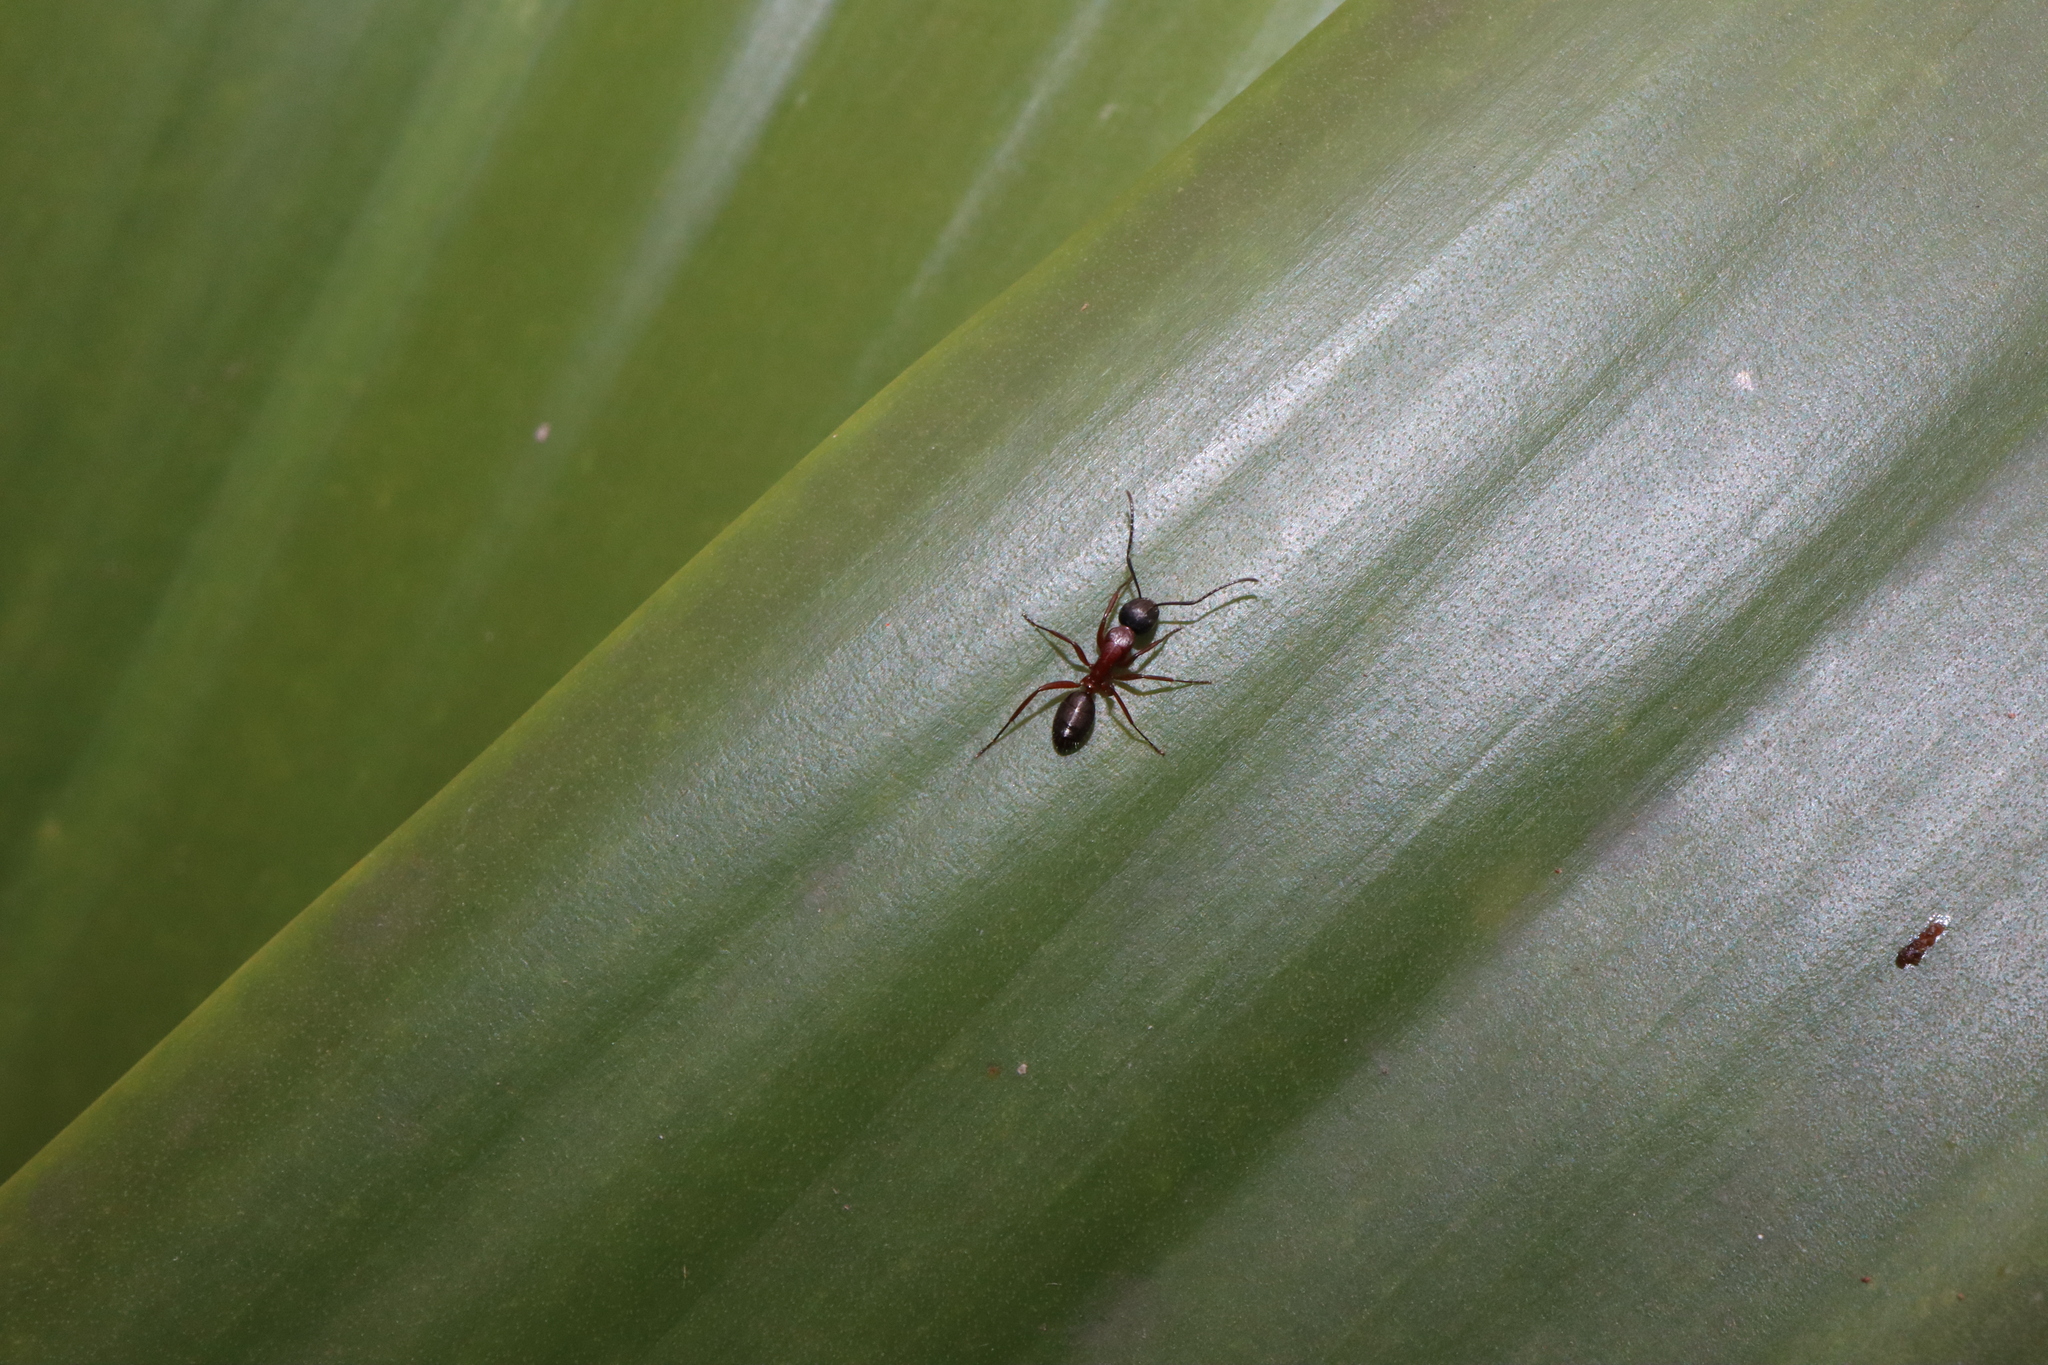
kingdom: Animalia
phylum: Arthropoda
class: Insecta
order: Hymenoptera
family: Formicidae
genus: Camponotus
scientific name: Camponotus innexus
